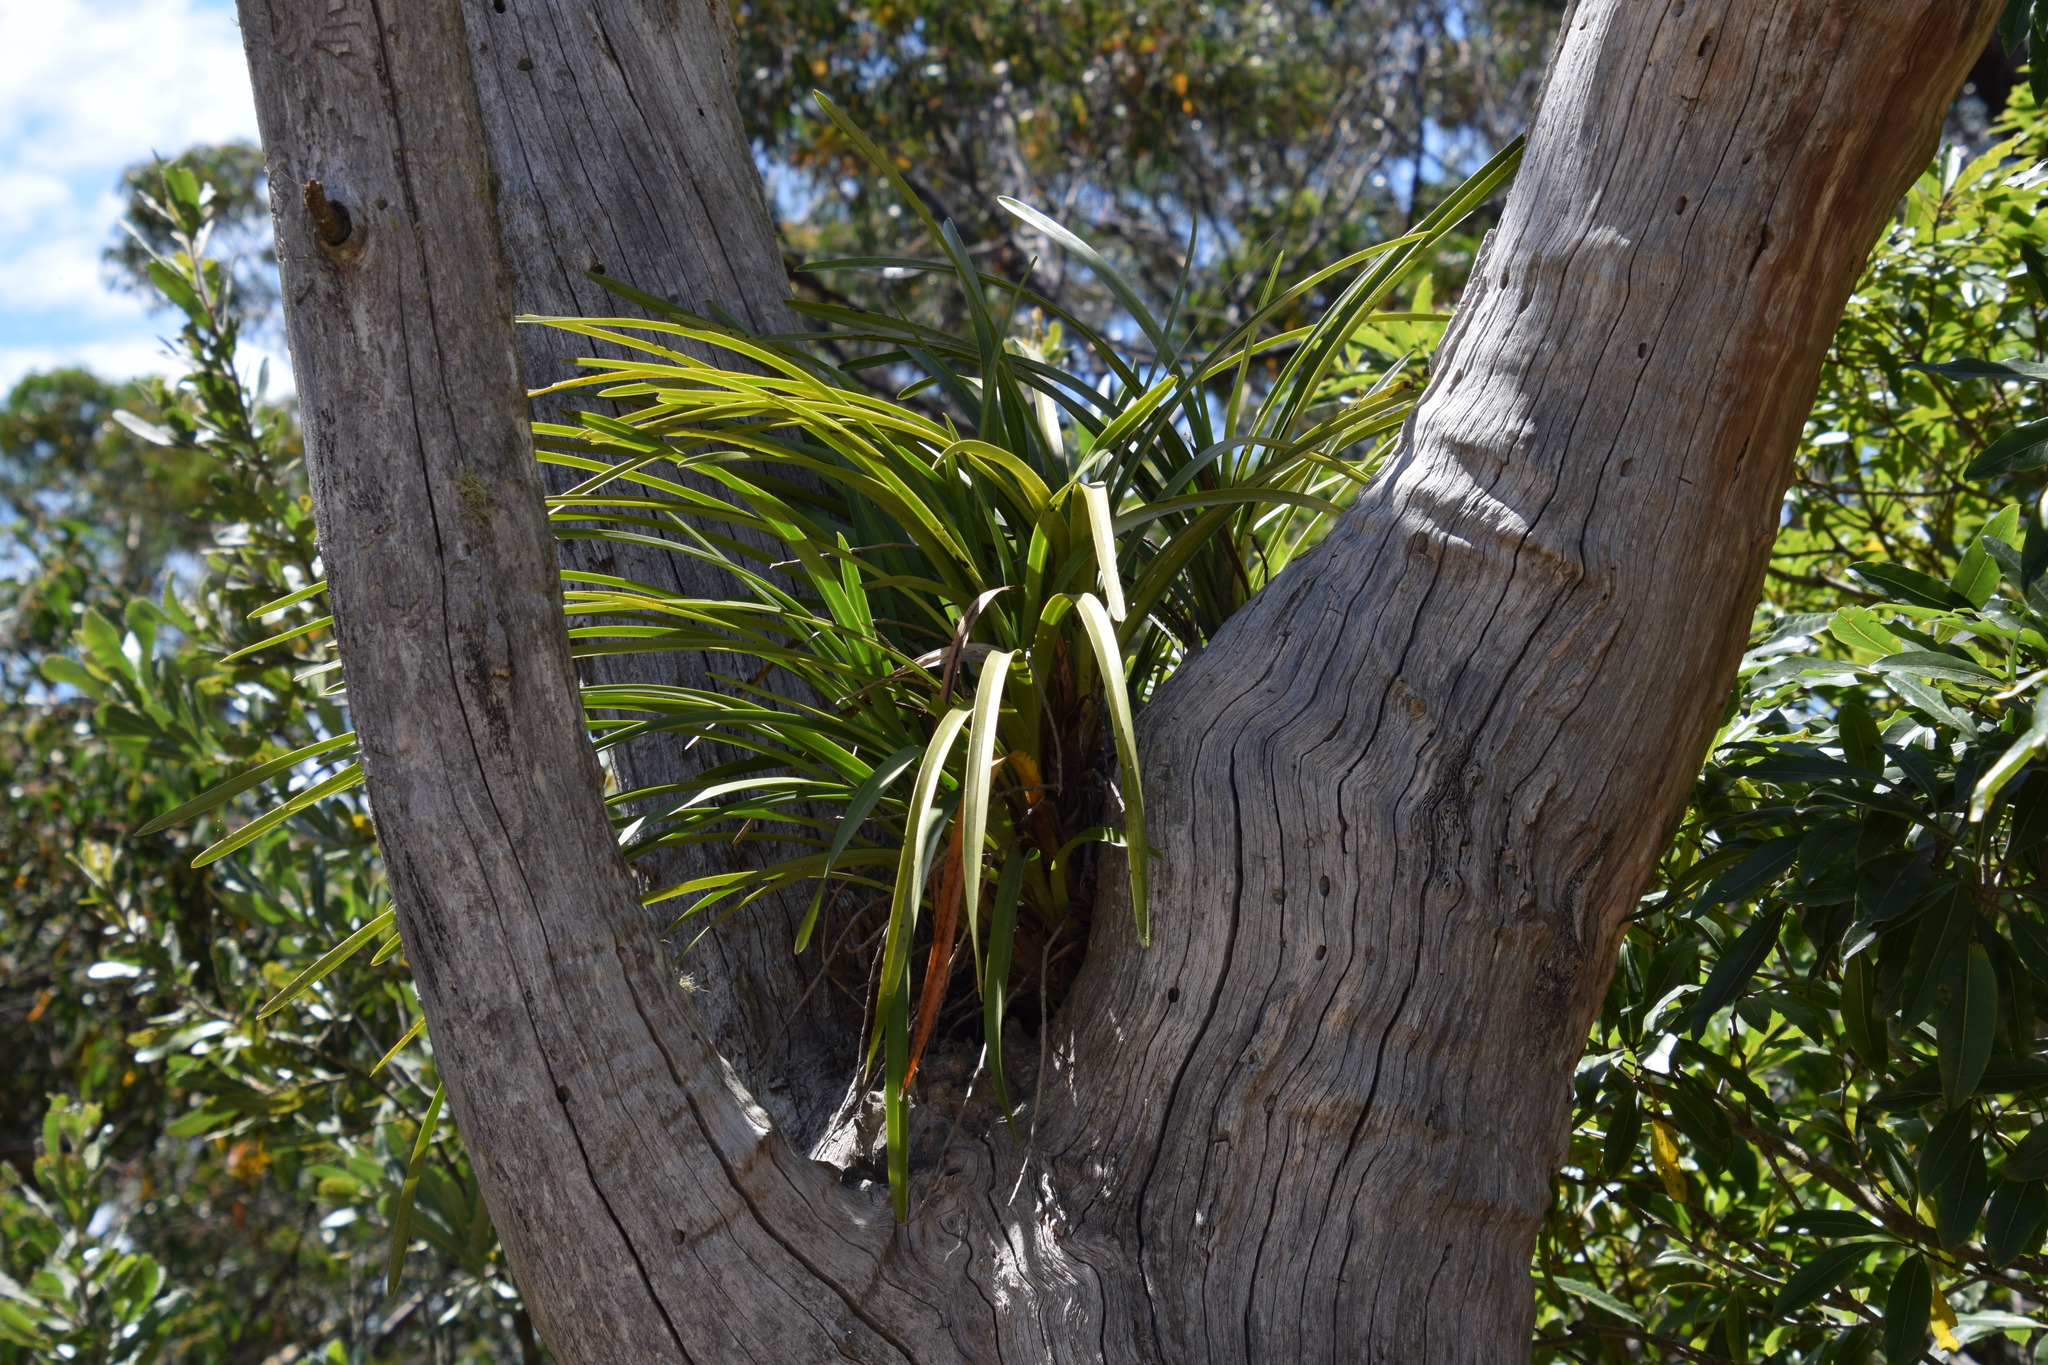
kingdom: Plantae
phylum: Tracheophyta
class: Liliopsida
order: Asparagales
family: Orchidaceae
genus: Cymbidium
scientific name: Cymbidium suave
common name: Snake orchid
